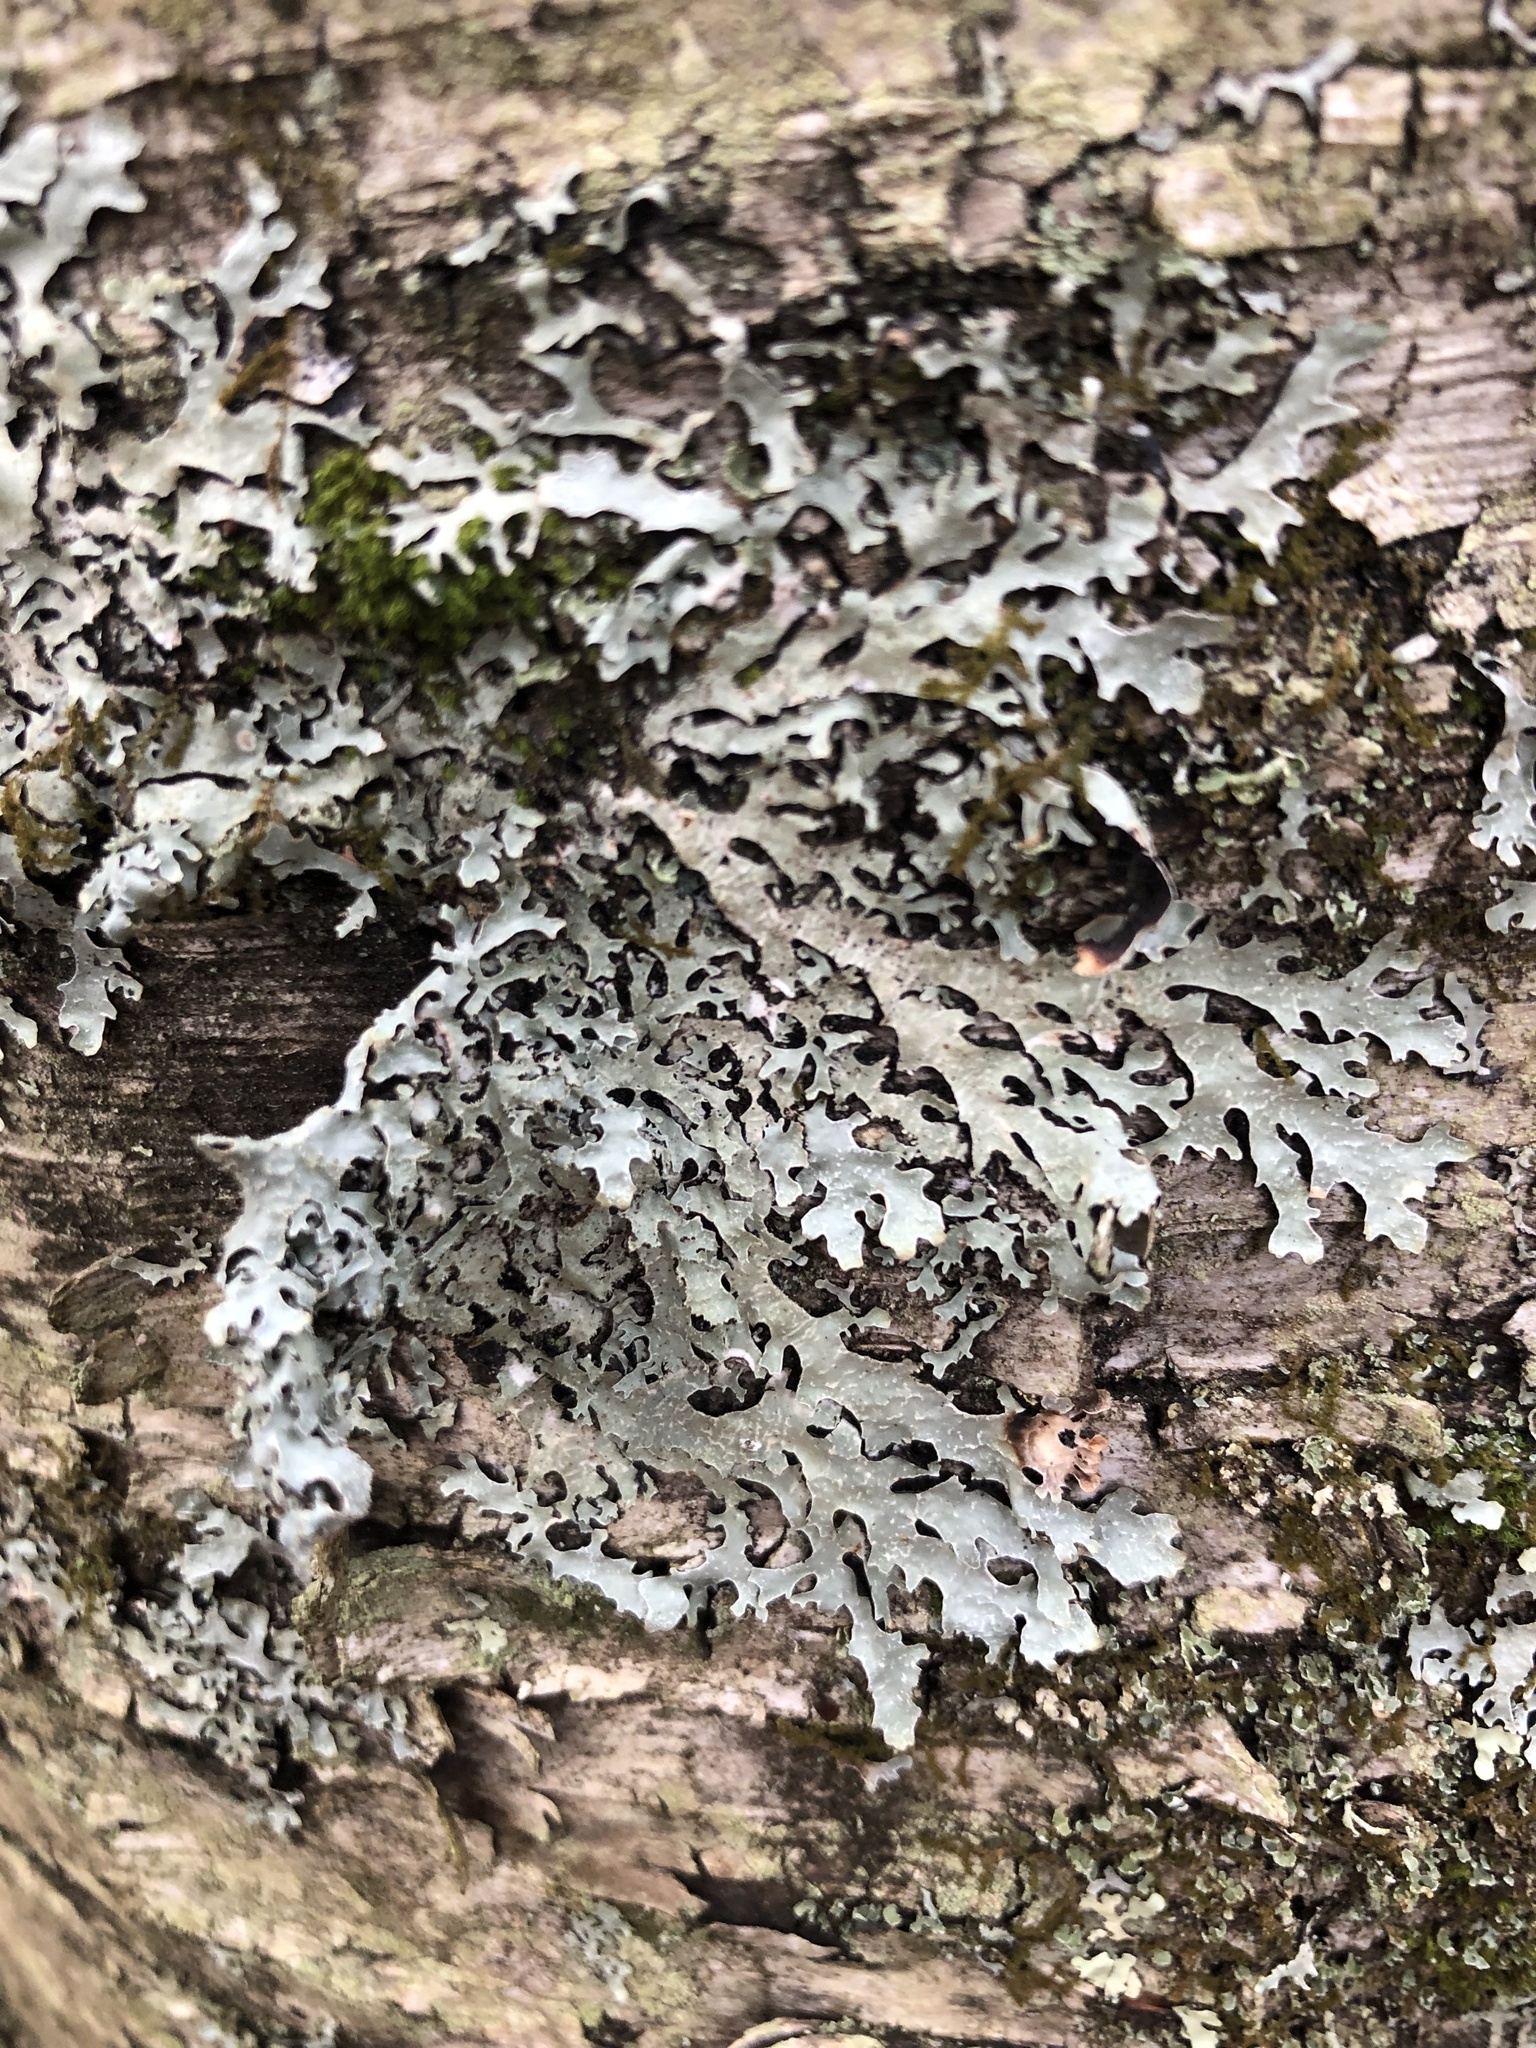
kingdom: Fungi
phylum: Ascomycota
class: Lecanoromycetes
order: Lecanorales
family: Parmeliaceae
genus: Parmelia
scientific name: Parmelia squarrosa
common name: Bottle brush shield lichen
